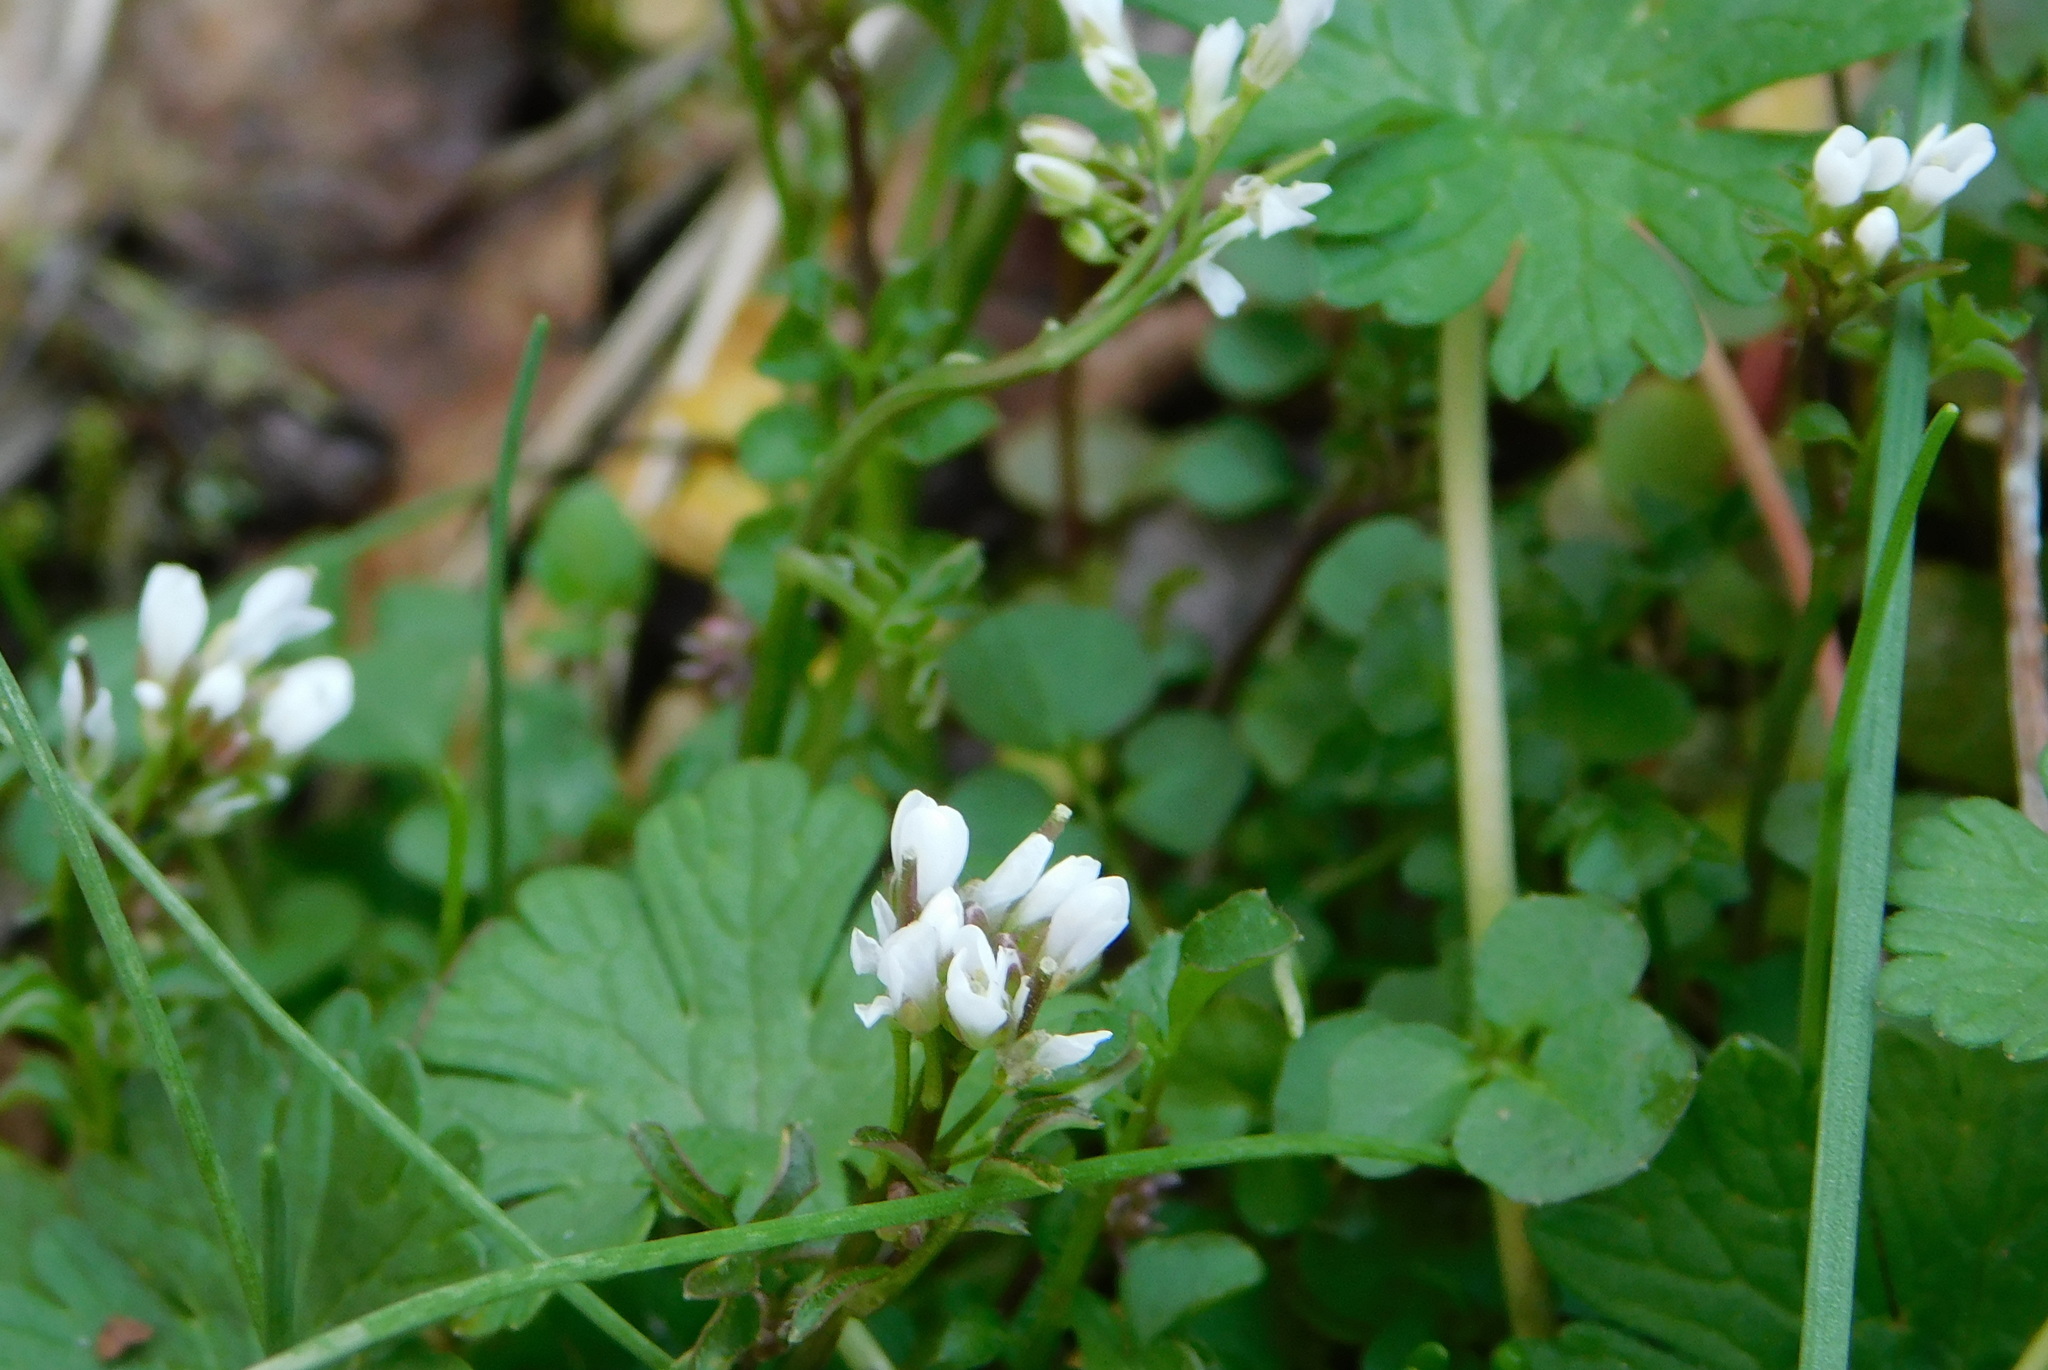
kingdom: Plantae
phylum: Tracheophyta
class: Magnoliopsida
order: Brassicales
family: Brassicaceae
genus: Cardamine
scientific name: Cardamine hirsuta
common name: Hairy bittercress
